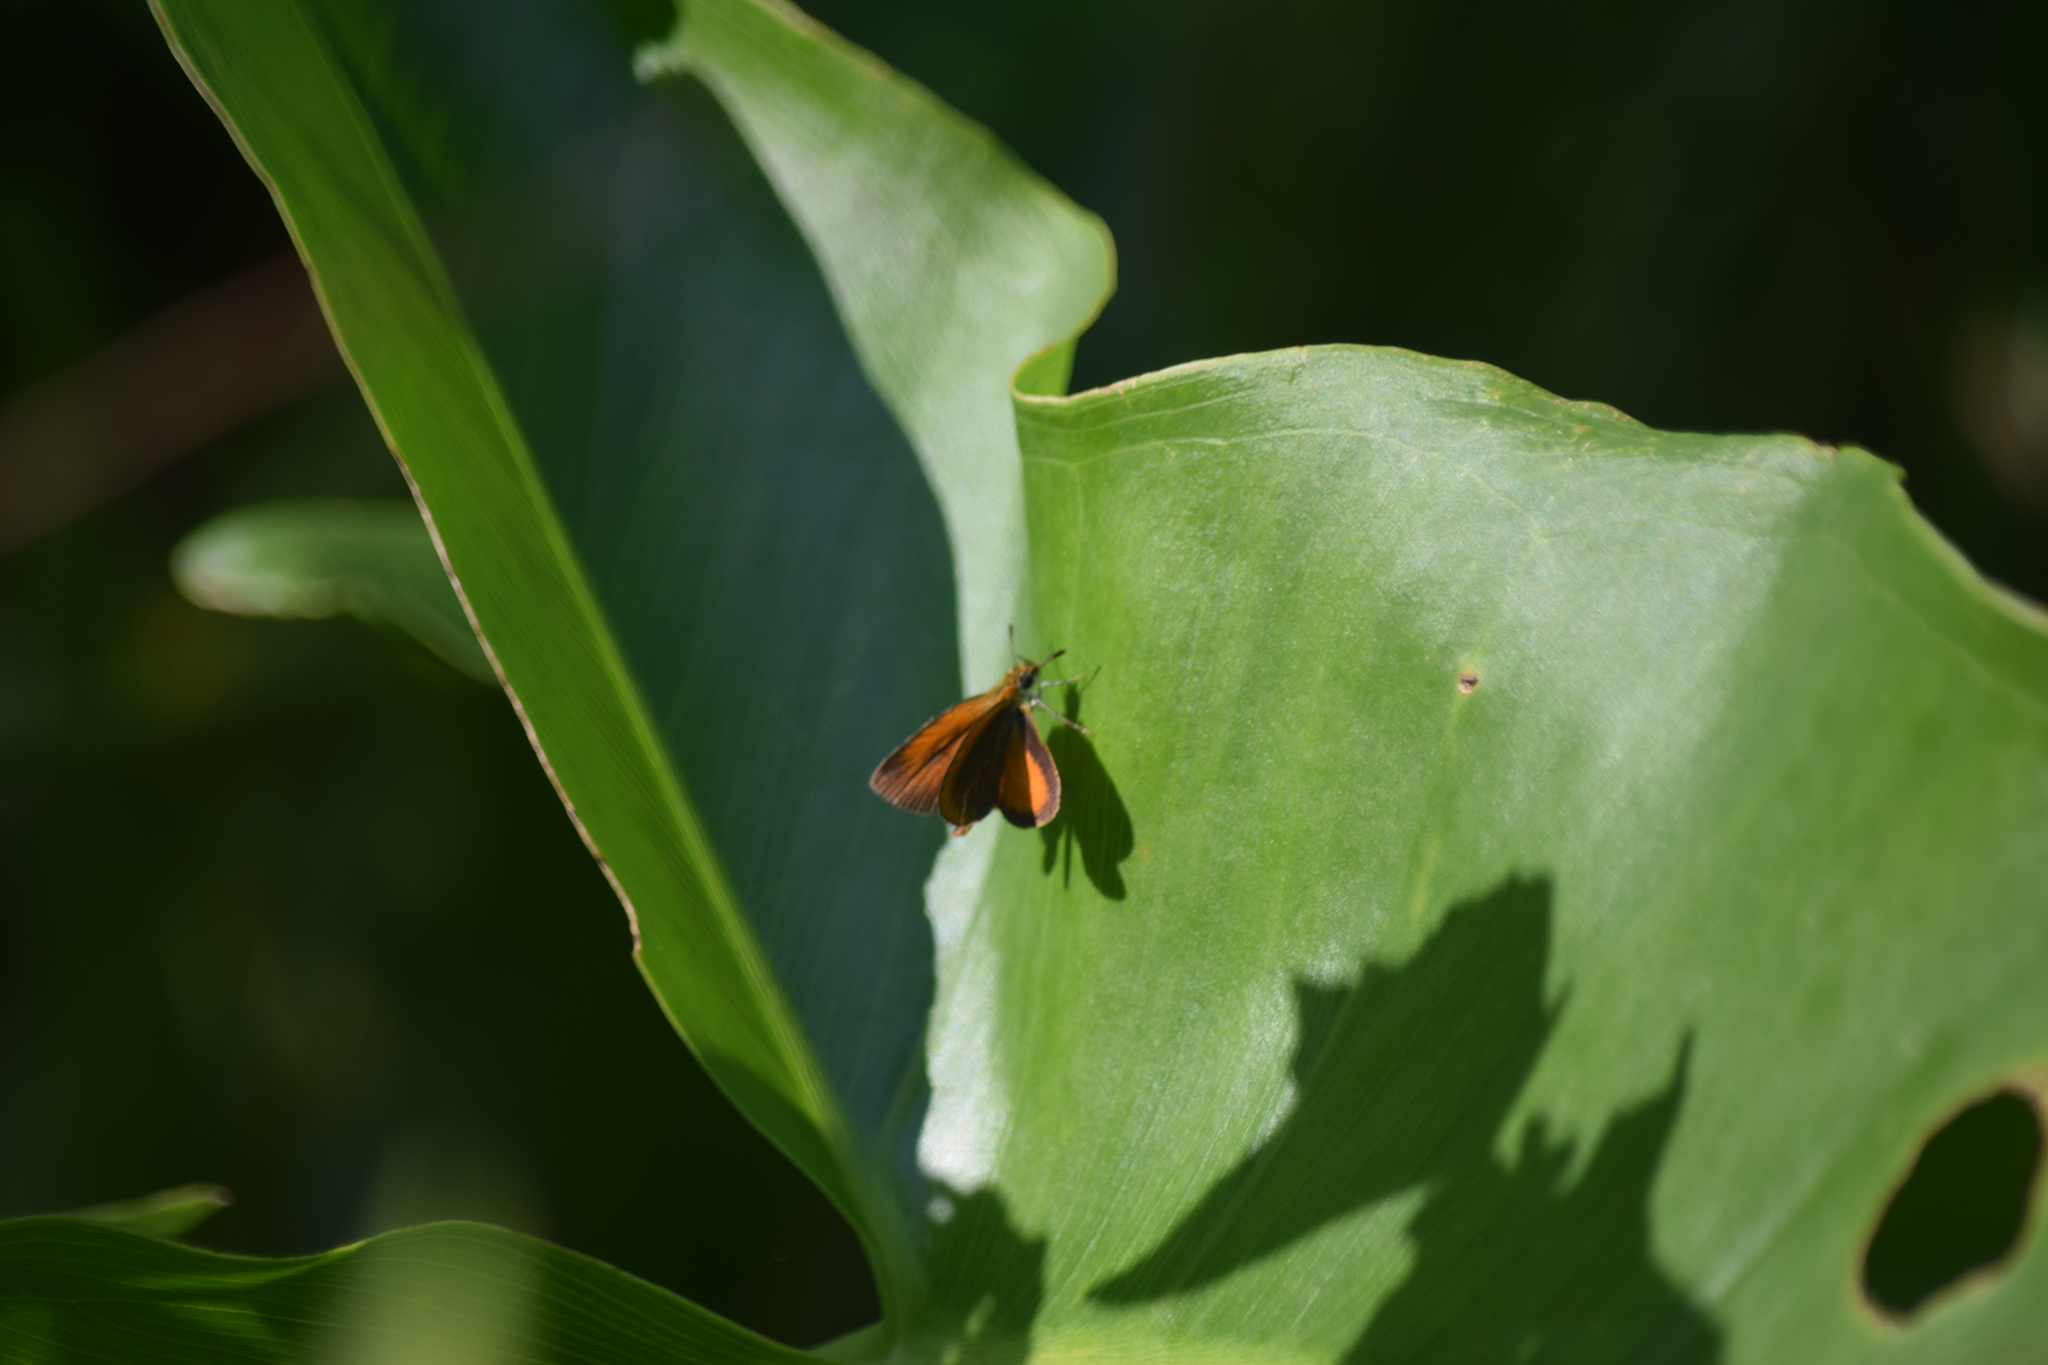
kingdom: Animalia
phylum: Arthropoda
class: Insecta
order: Lepidoptera
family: Hesperiidae
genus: Ancyloxypha
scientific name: Ancyloxypha numitor
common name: Least skipper
